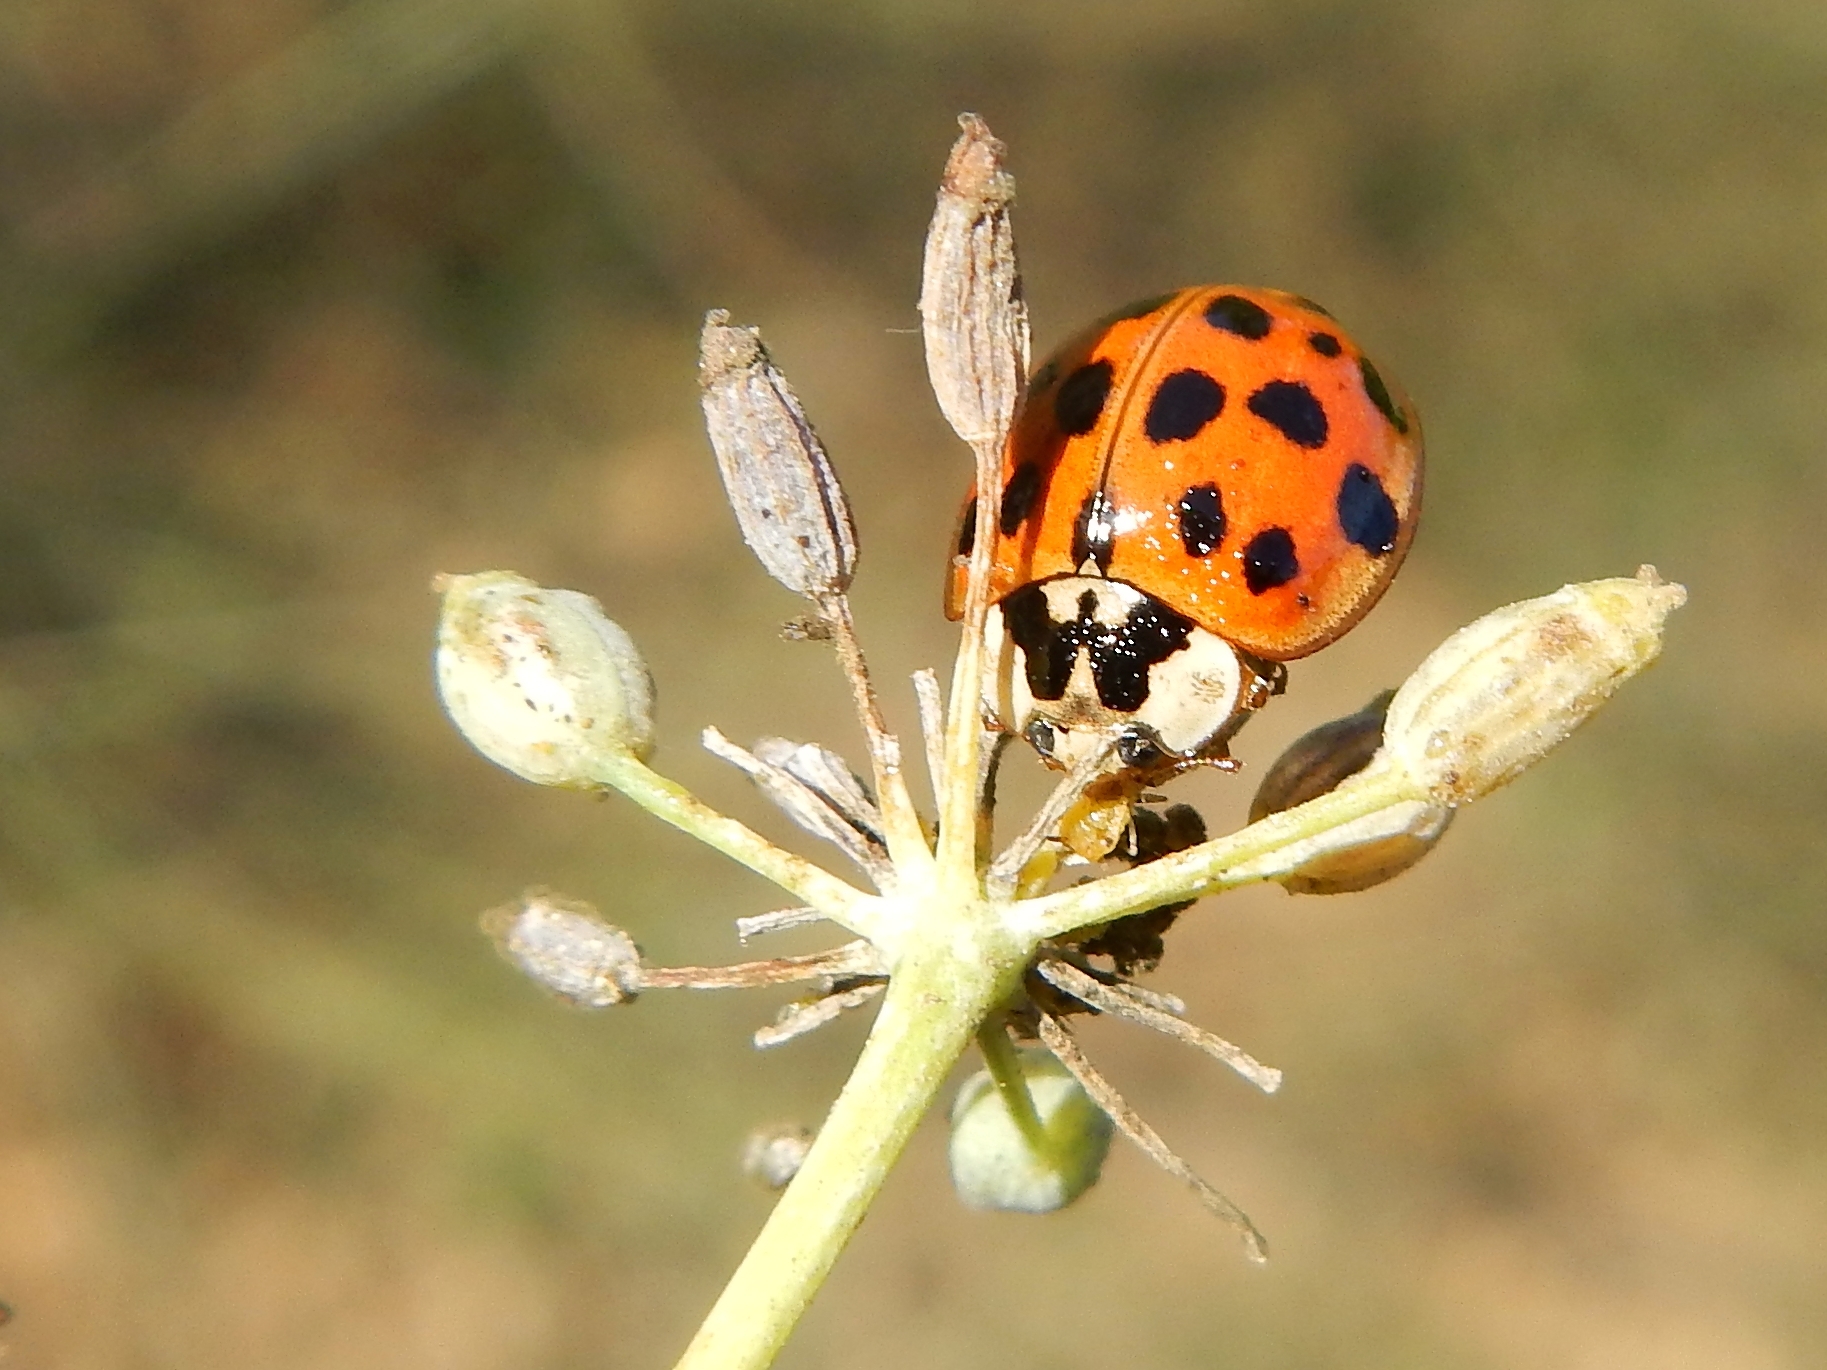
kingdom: Animalia
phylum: Arthropoda
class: Insecta
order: Coleoptera
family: Coccinellidae
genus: Harmonia
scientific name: Harmonia axyridis
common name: Harlequin ladybird
